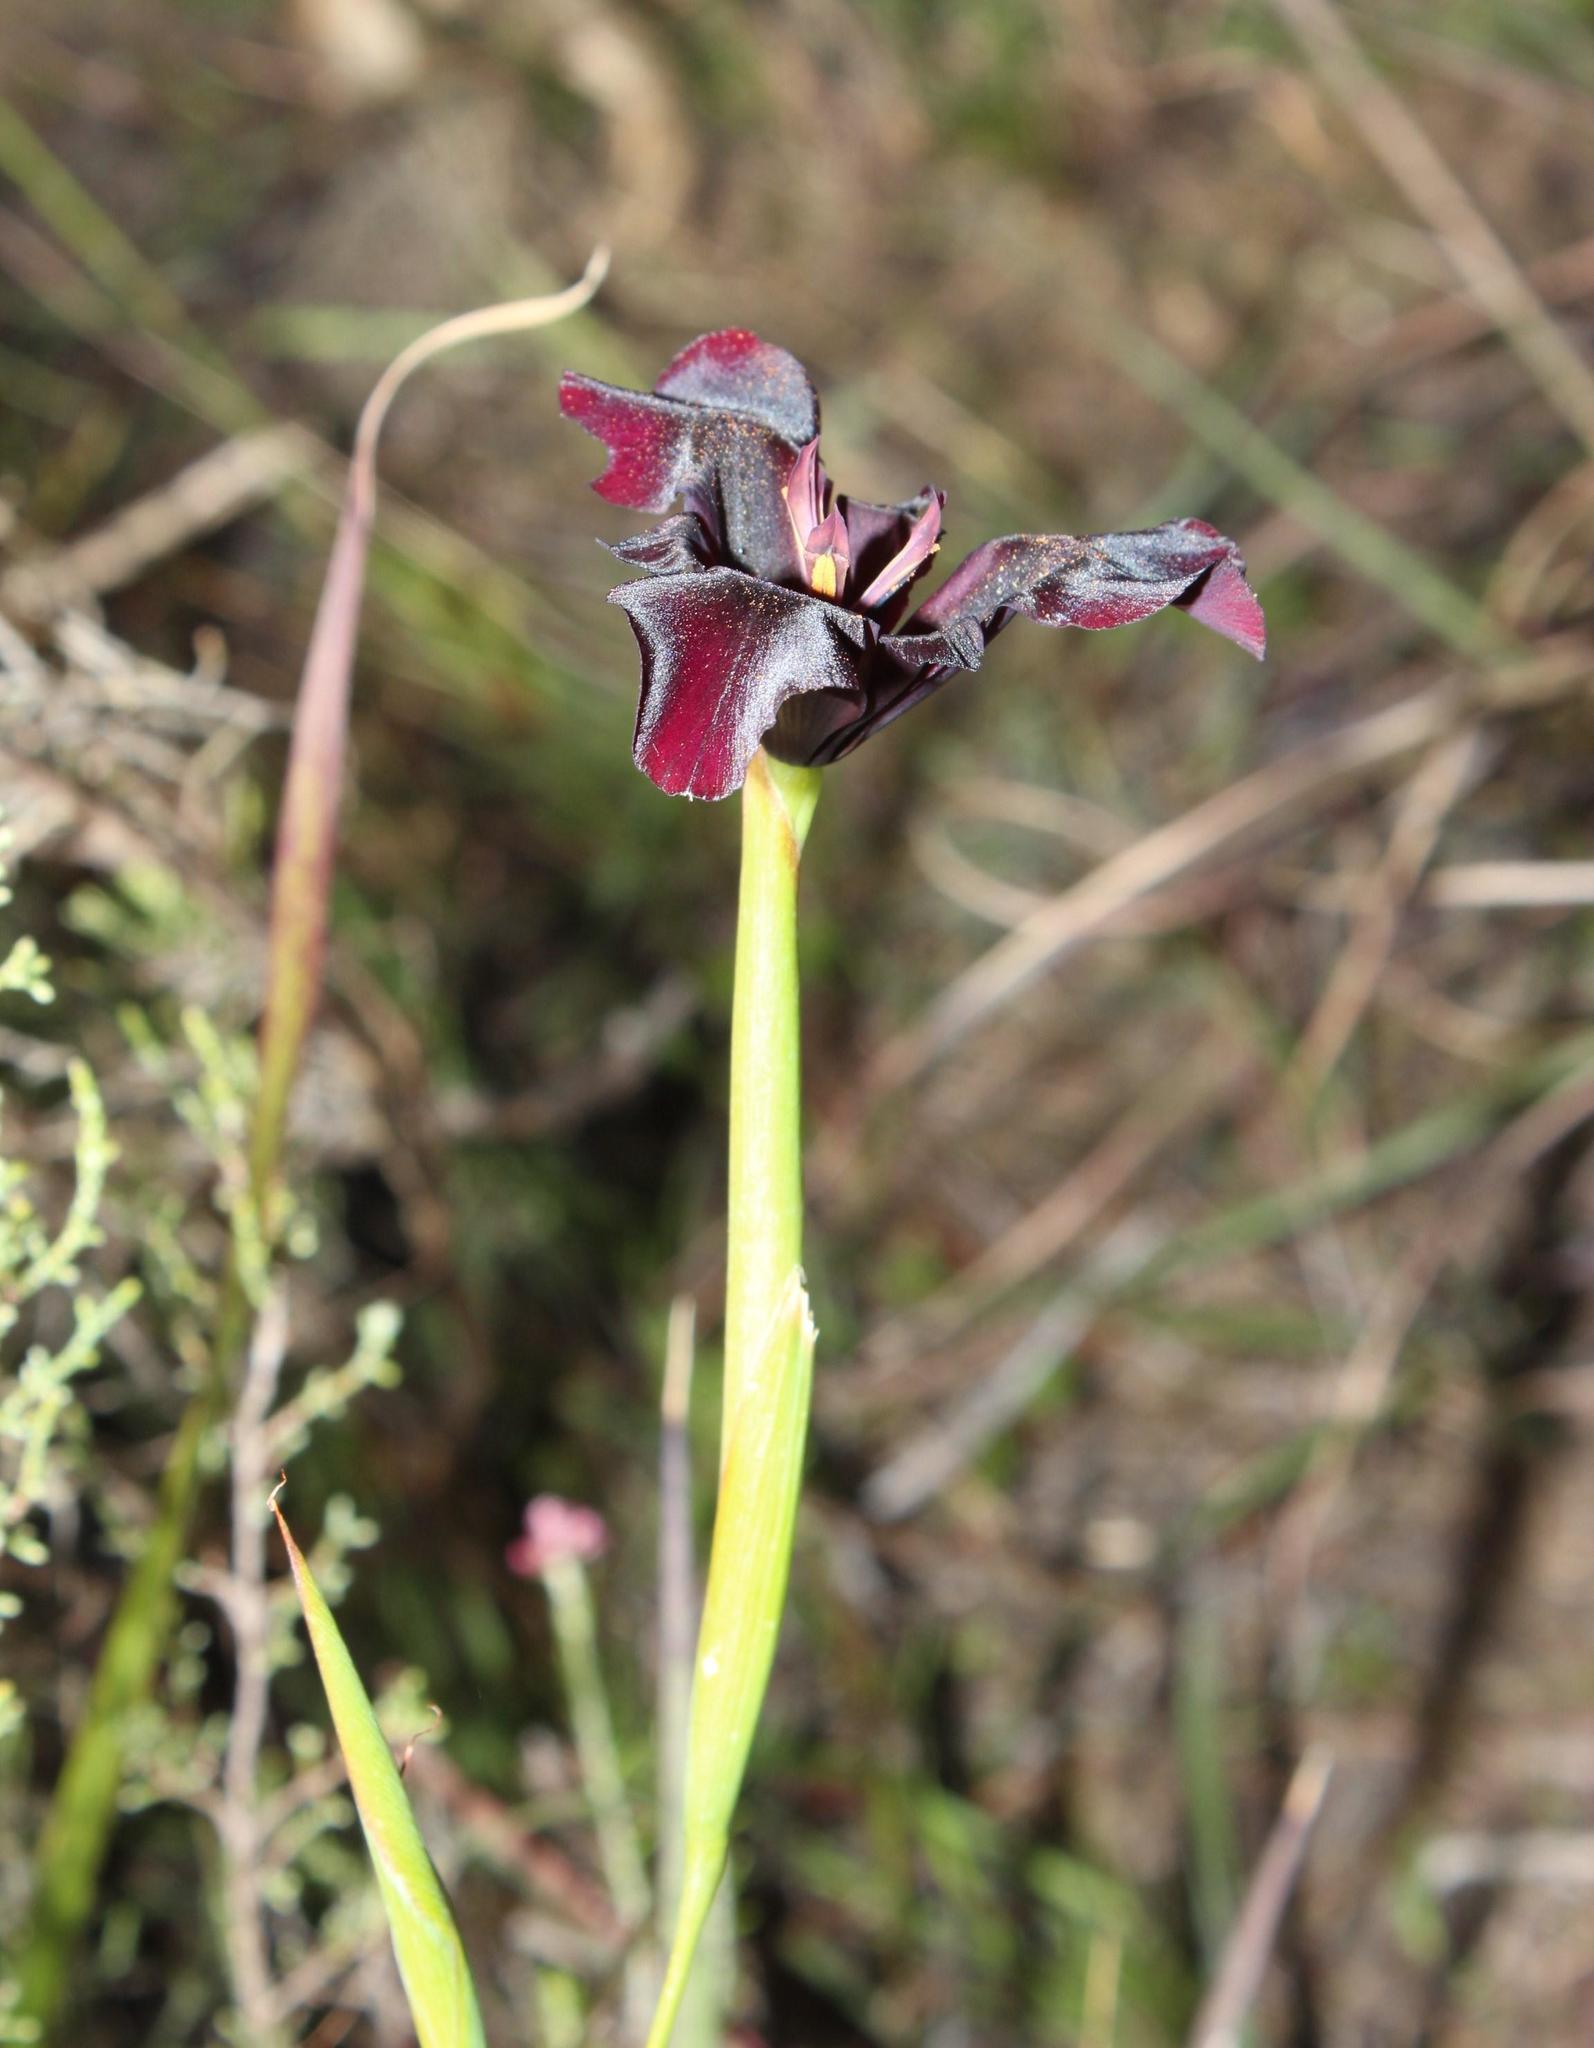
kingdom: Plantae
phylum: Tracheophyta
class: Liliopsida
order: Asparagales
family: Iridaceae
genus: Moraea
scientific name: Moraea lurida
